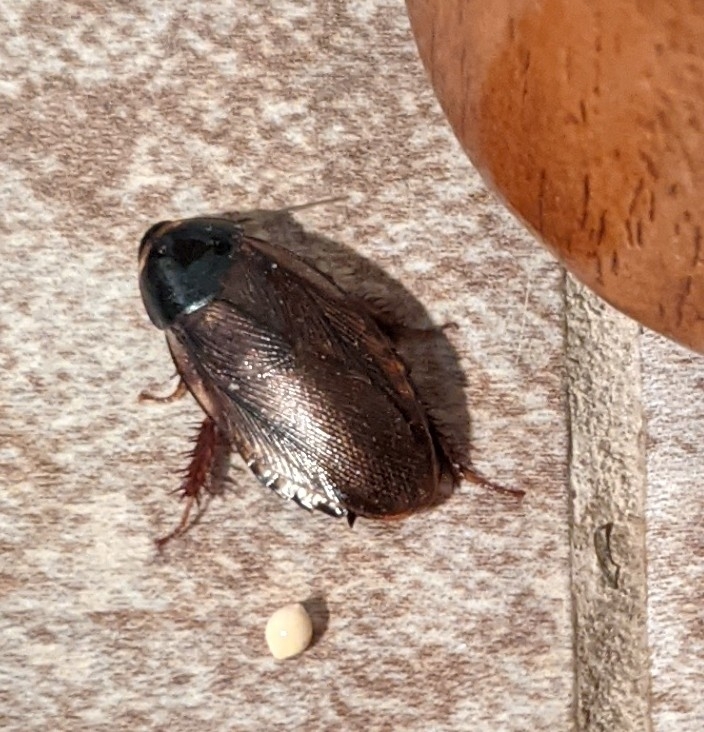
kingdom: Animalia
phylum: Arthropoda
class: Insecta
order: Blattodea
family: Blaberidae
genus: Pycnoscelus
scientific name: Pycnoscelus surinamensis
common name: Surinam cockroach
